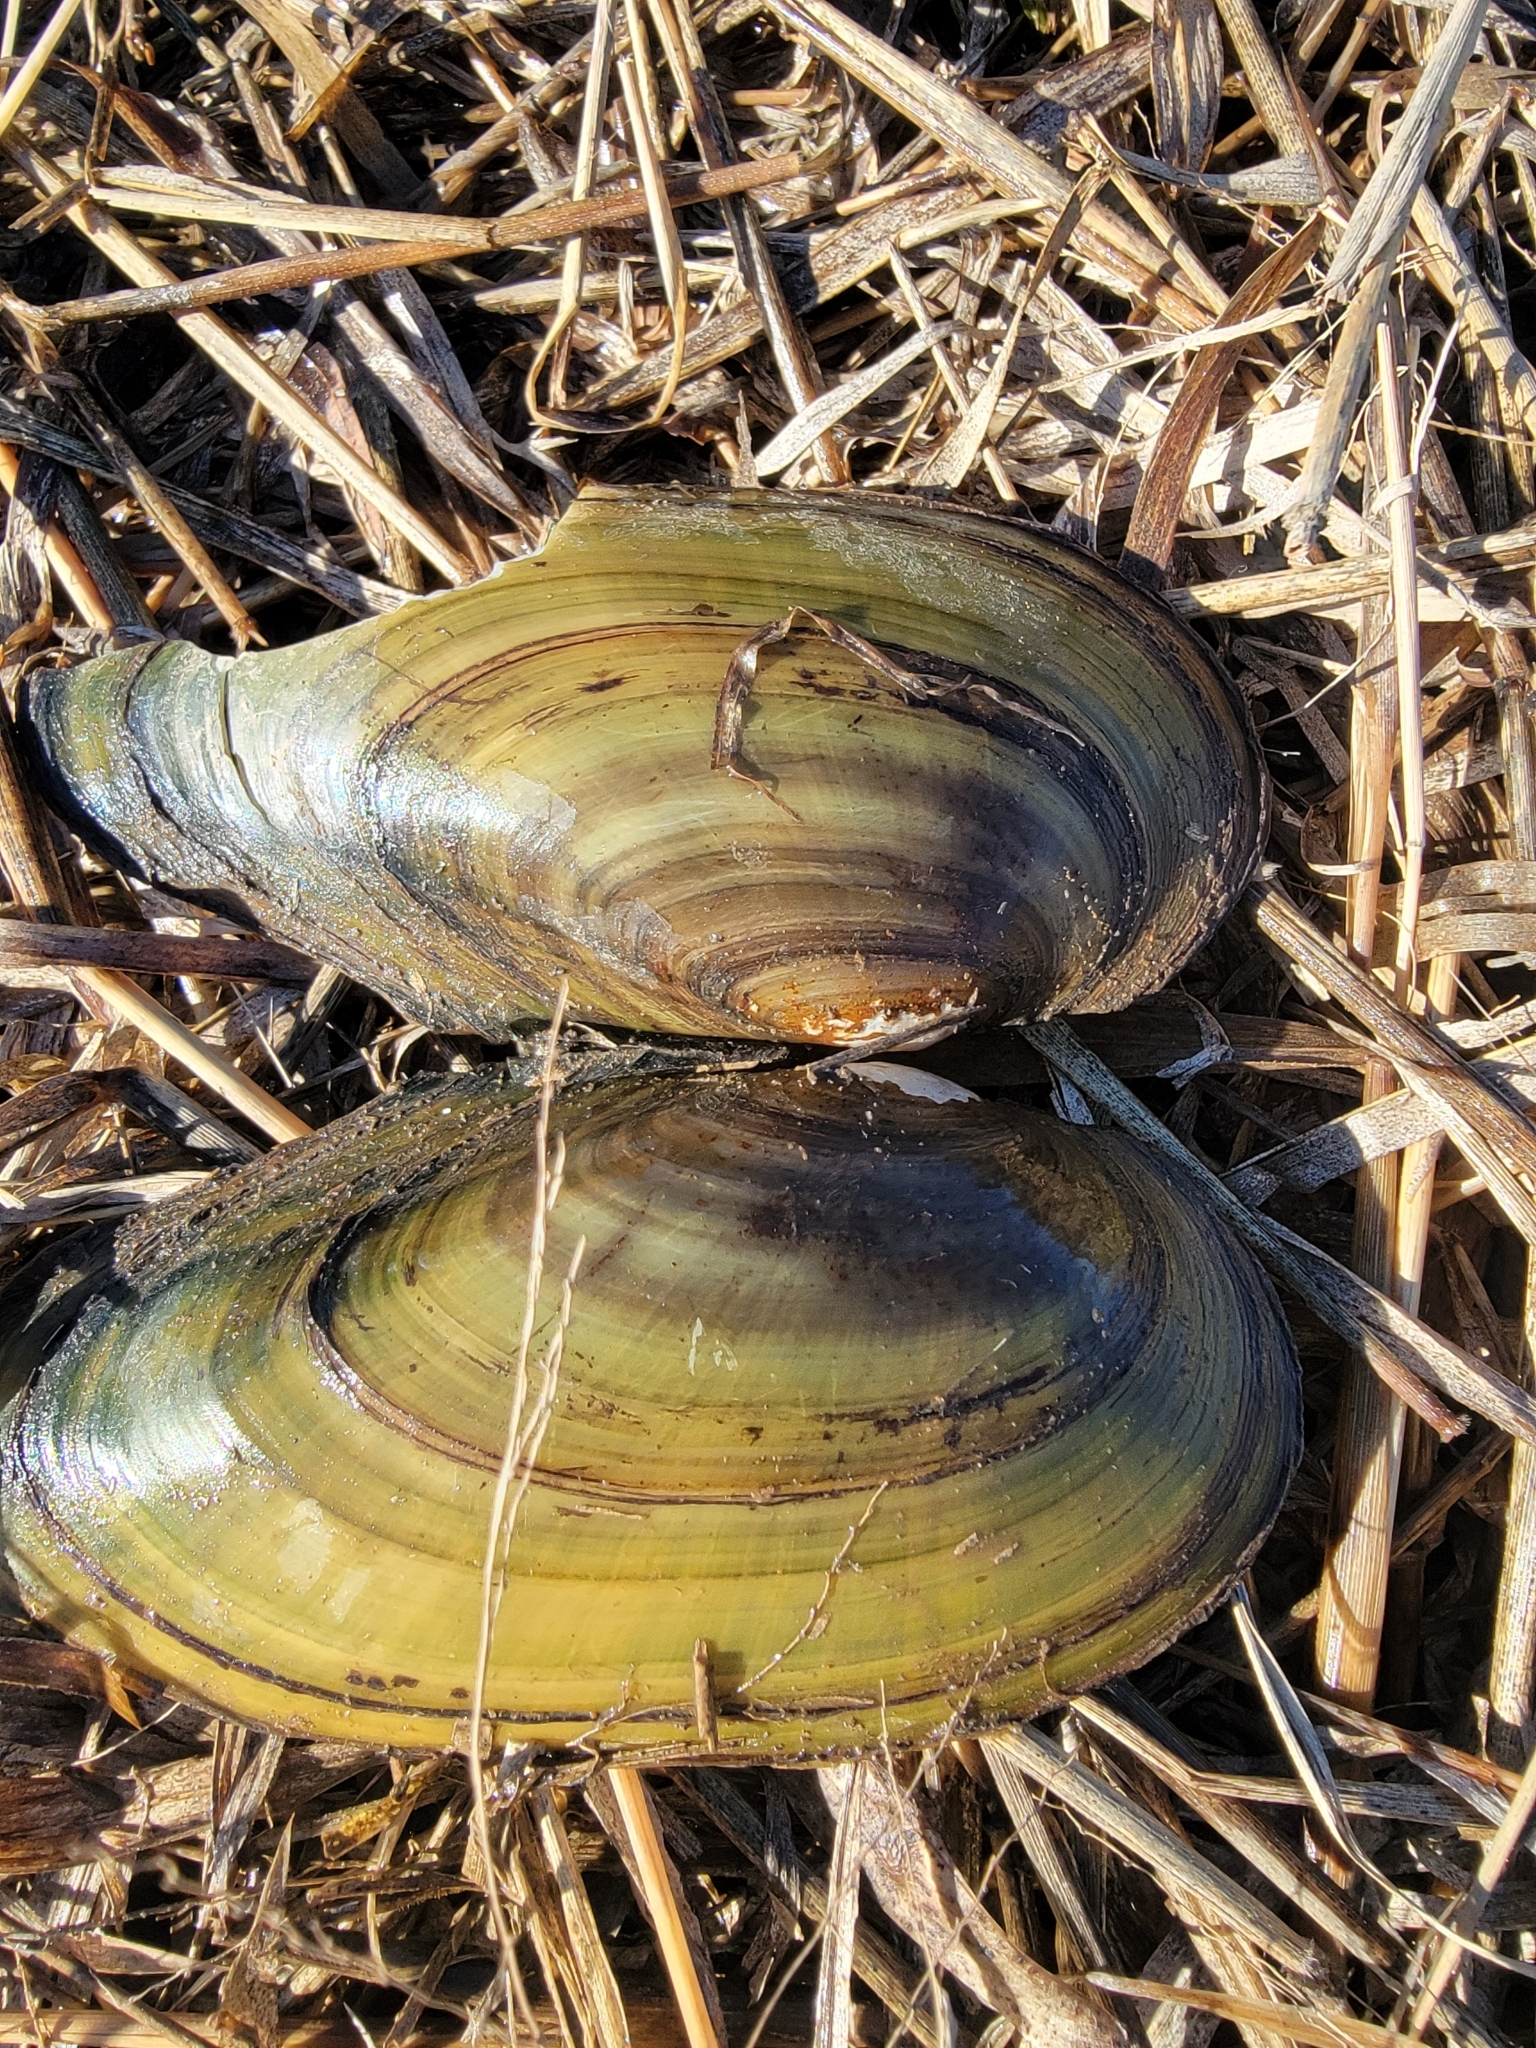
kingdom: Animalia
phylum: Mollusca
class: Bivalvia
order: Unionida
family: Unionidae
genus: Pyganodon
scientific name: Pyganodon grandis
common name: Giant floater
